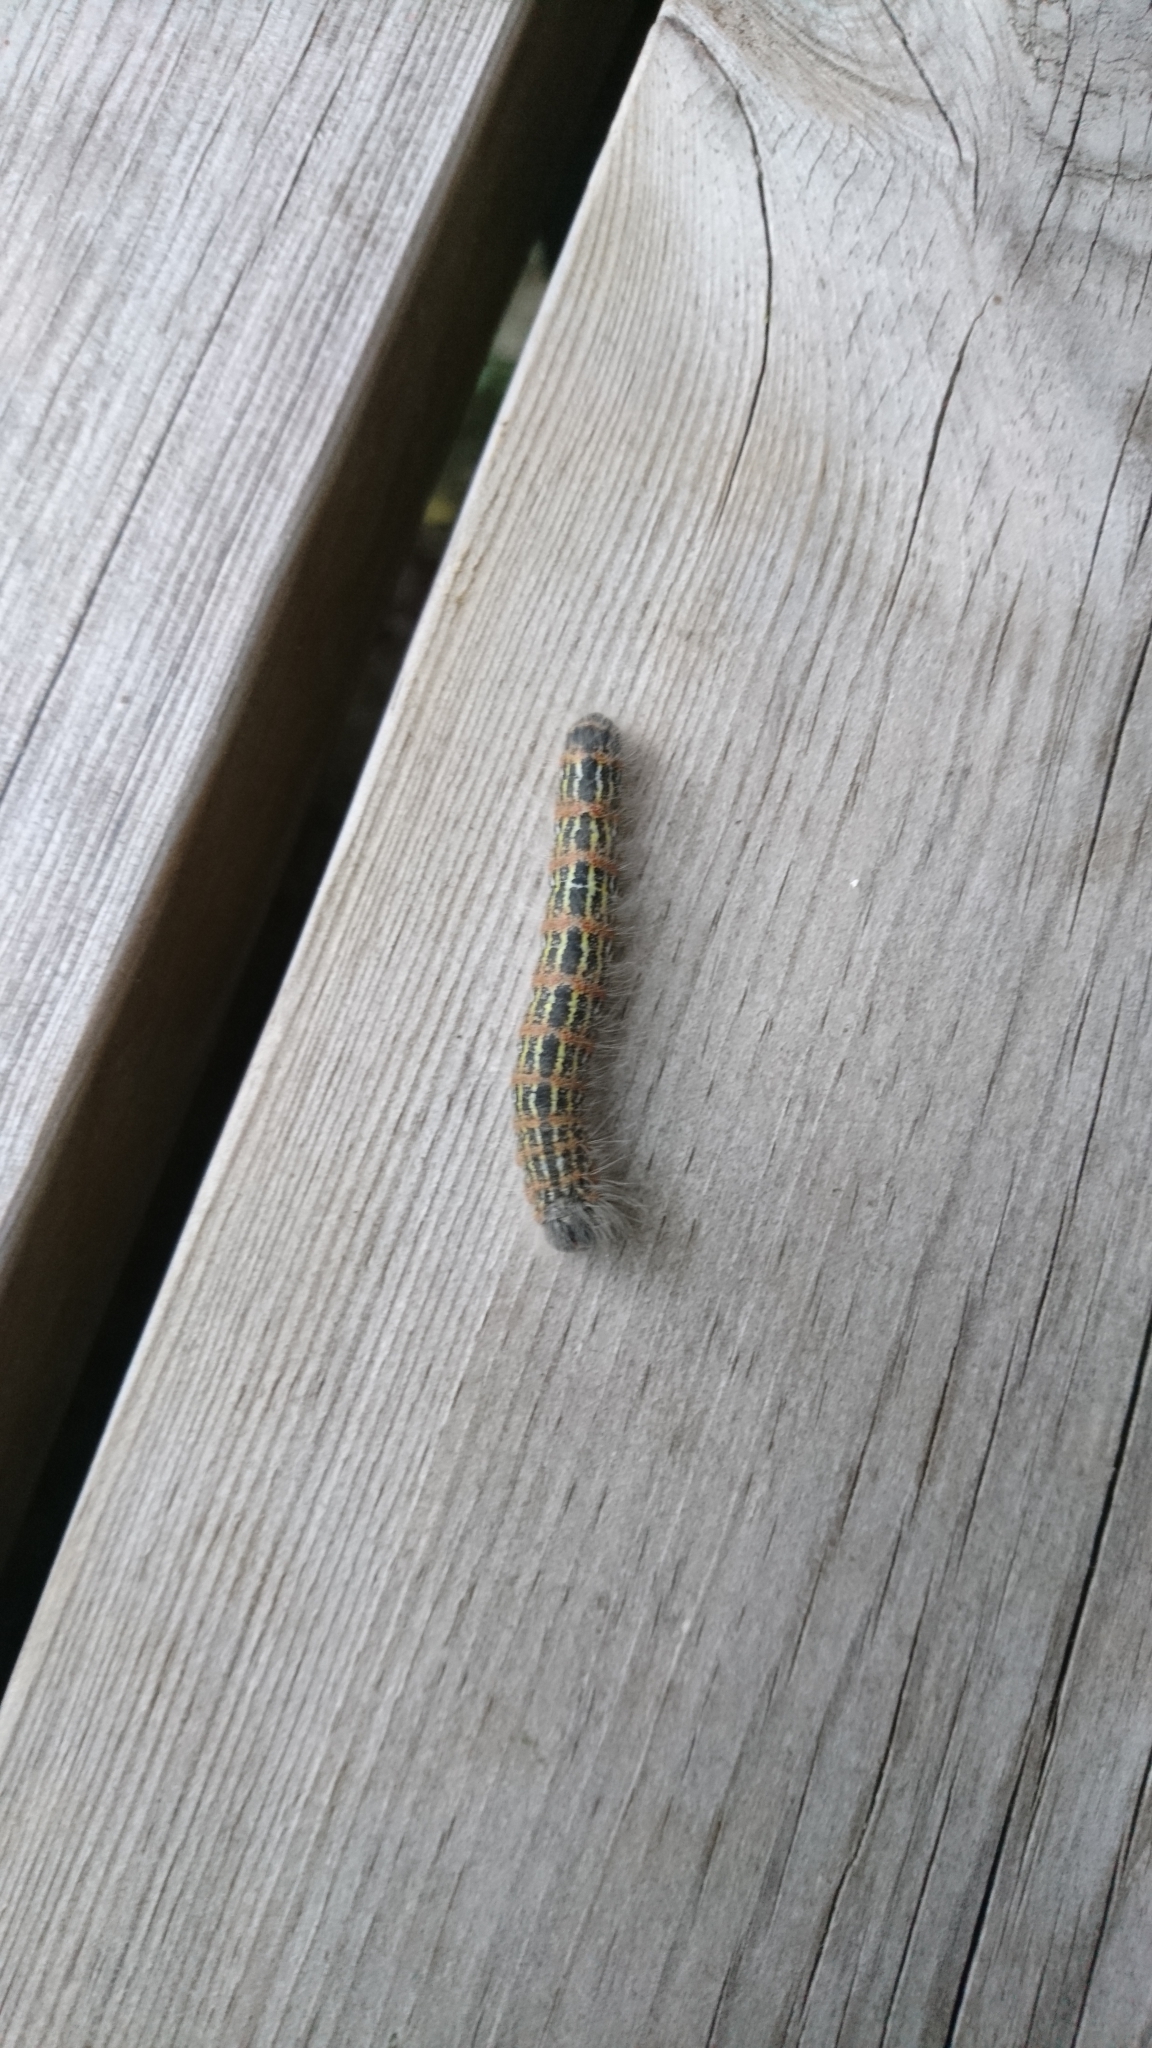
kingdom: Animalia
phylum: Arthropoda
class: Insecta
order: Lepidoptera
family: Notodontidae
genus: Phalera
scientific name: Phalera bucephala
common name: Buff-tip
